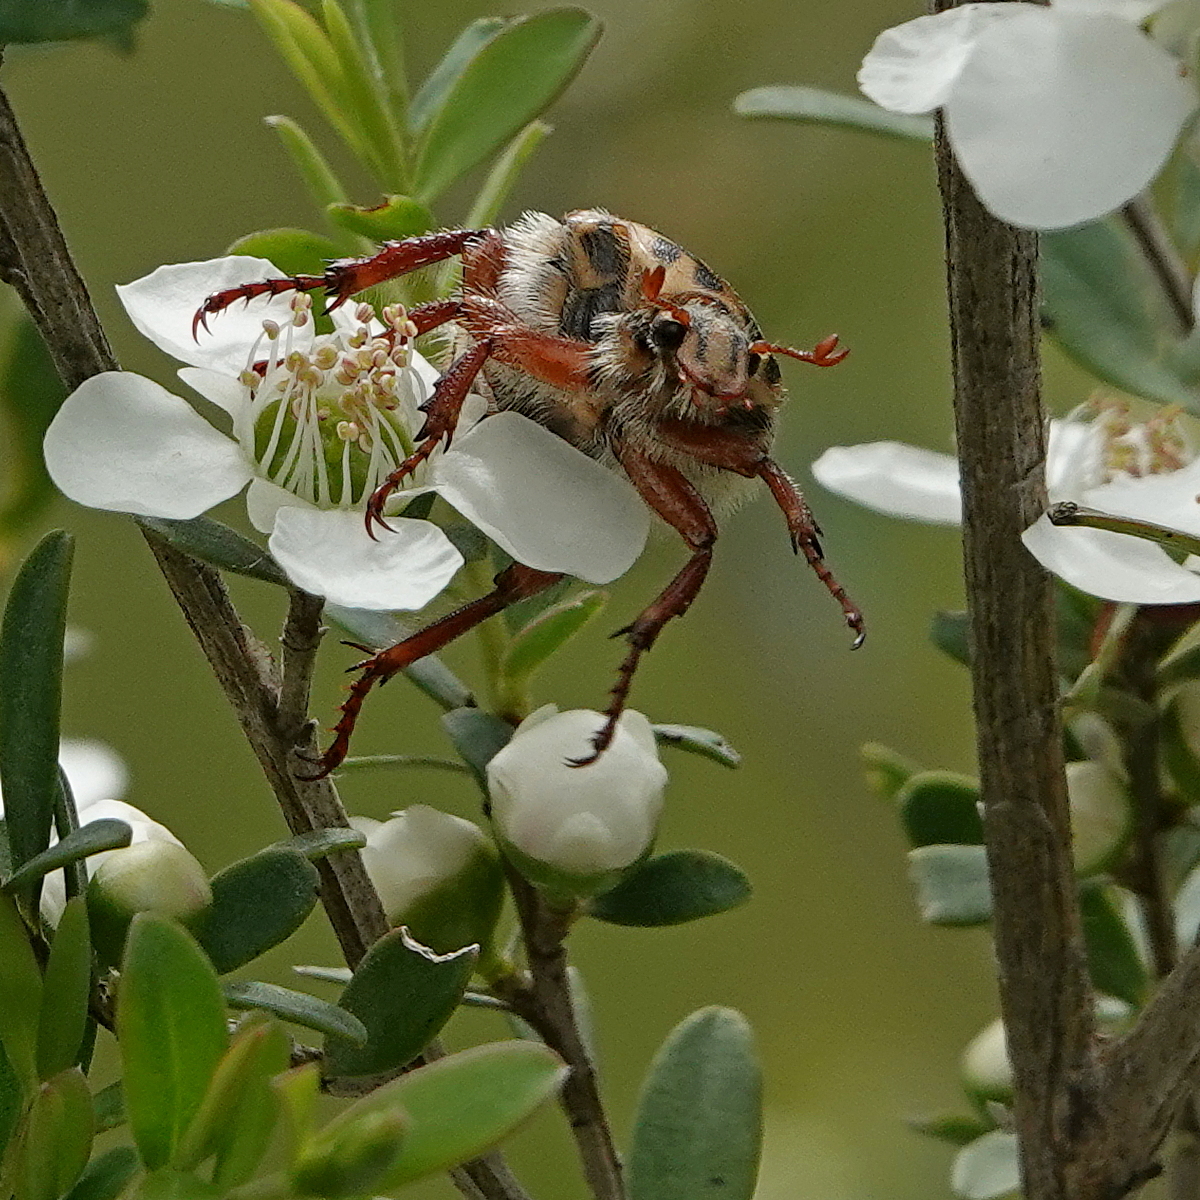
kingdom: Animalia
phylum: Arthropoda
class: Insecta
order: Coleoptera
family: Scarabaeidae
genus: Neorrhina
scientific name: Neorrhina punctatum
